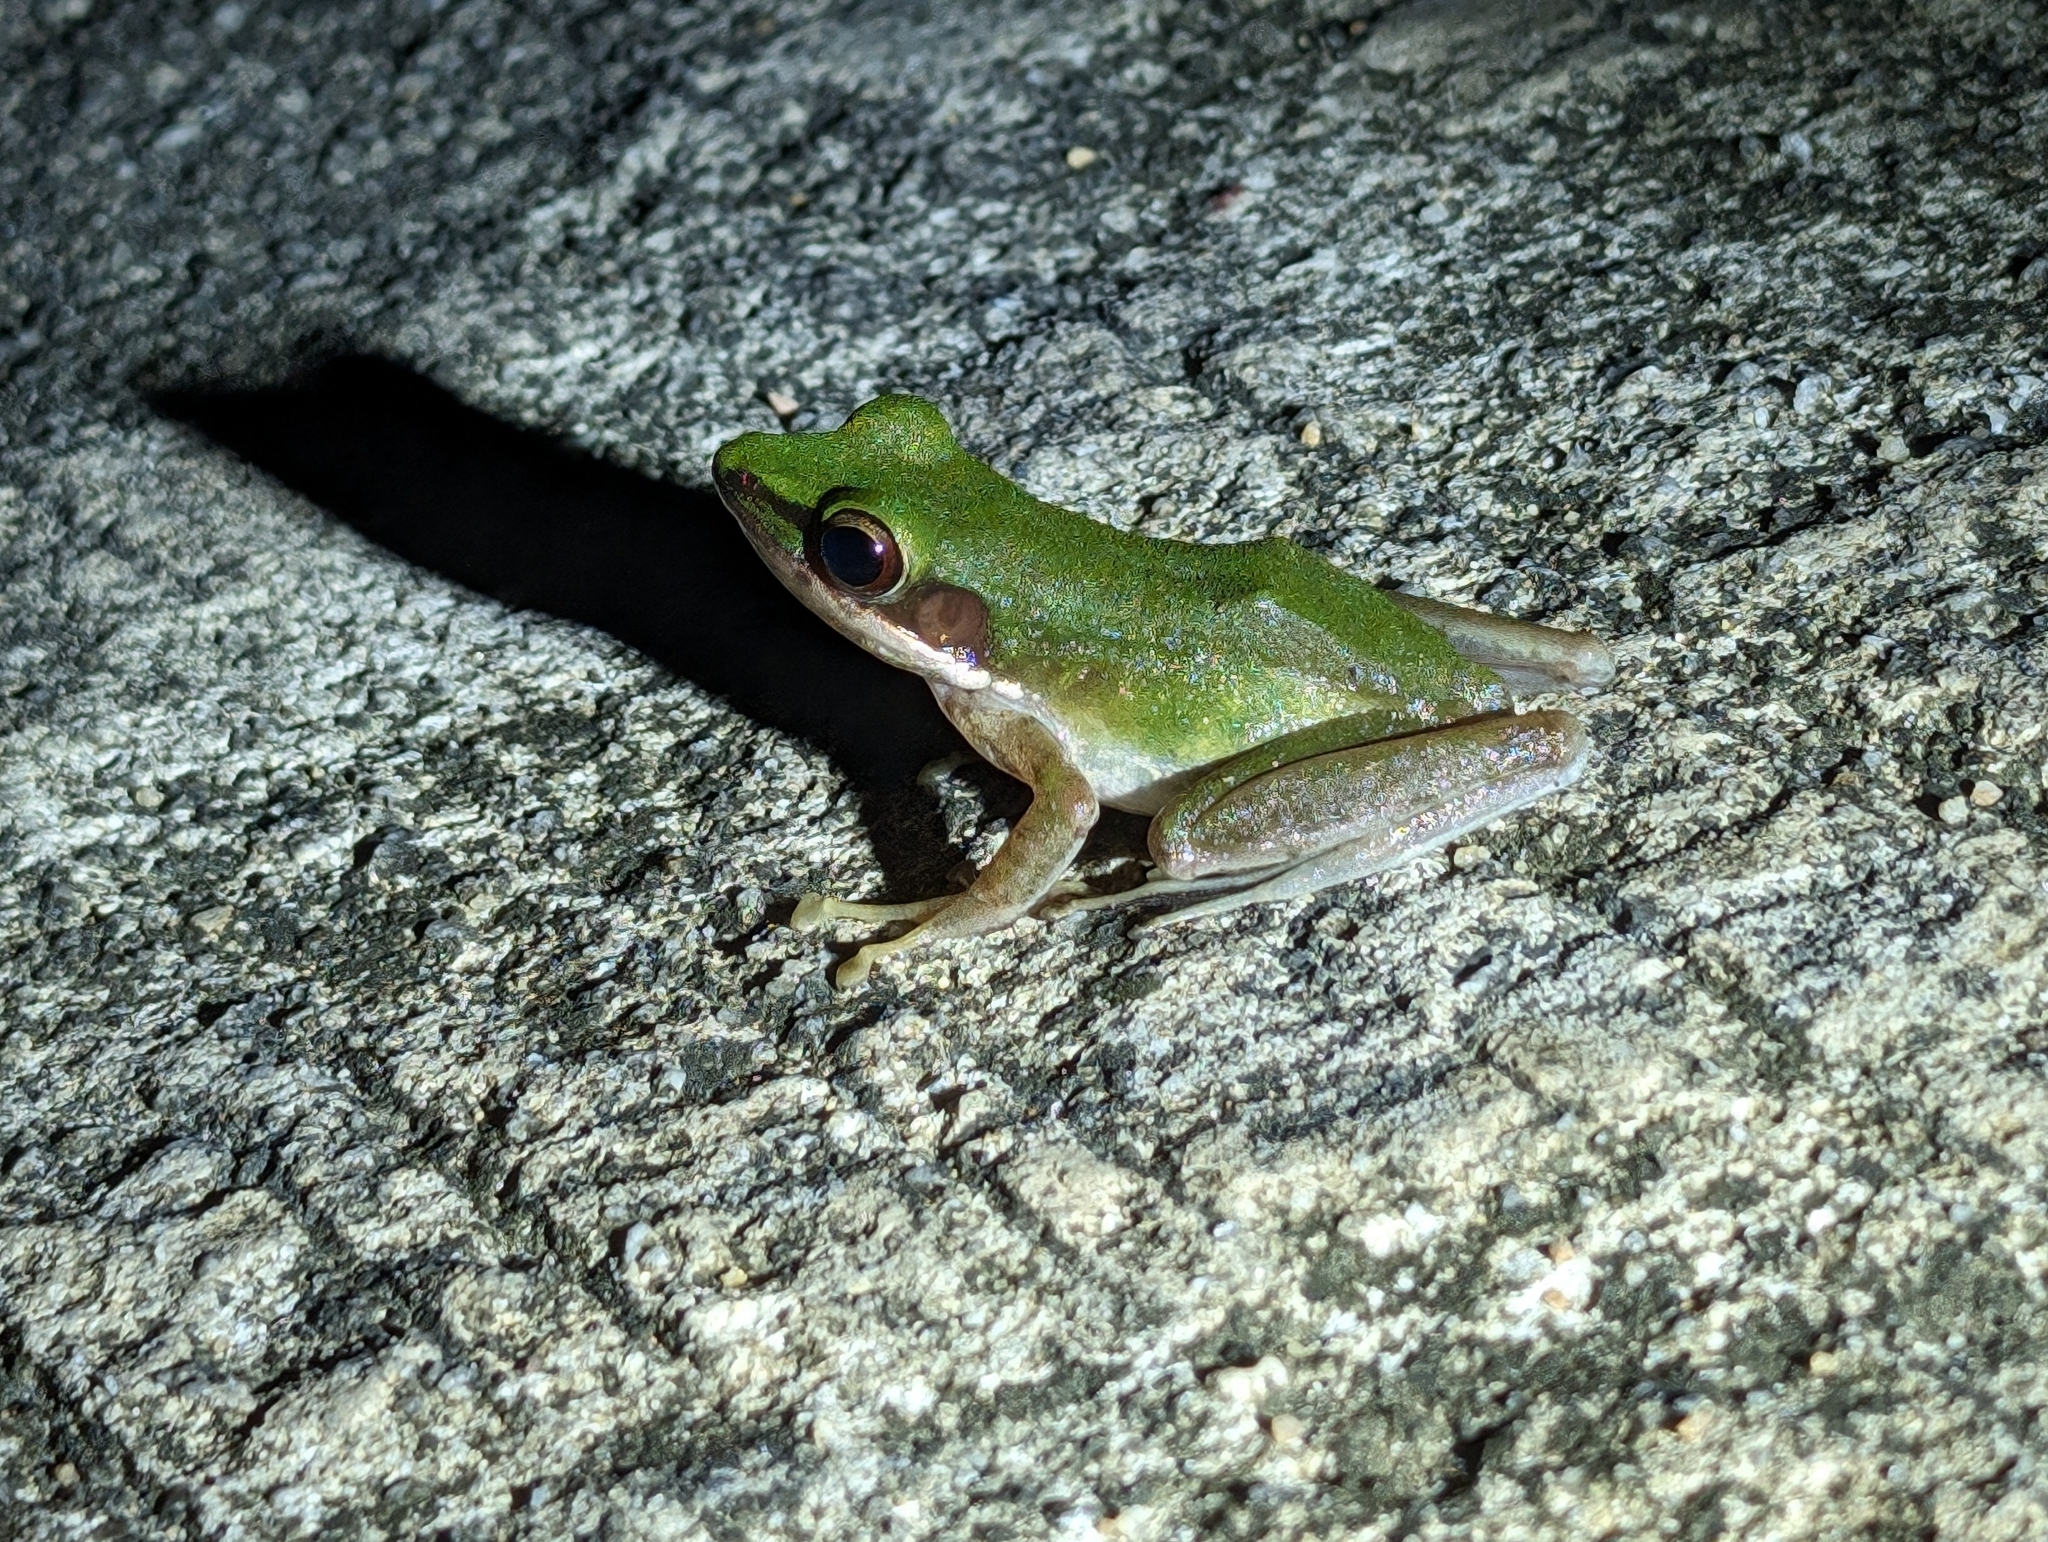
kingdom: Animalia
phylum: Chordata
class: Amphibia
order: Anura
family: Ranidae
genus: Odorrana
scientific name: Odorrana hosii
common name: Green tree frog
